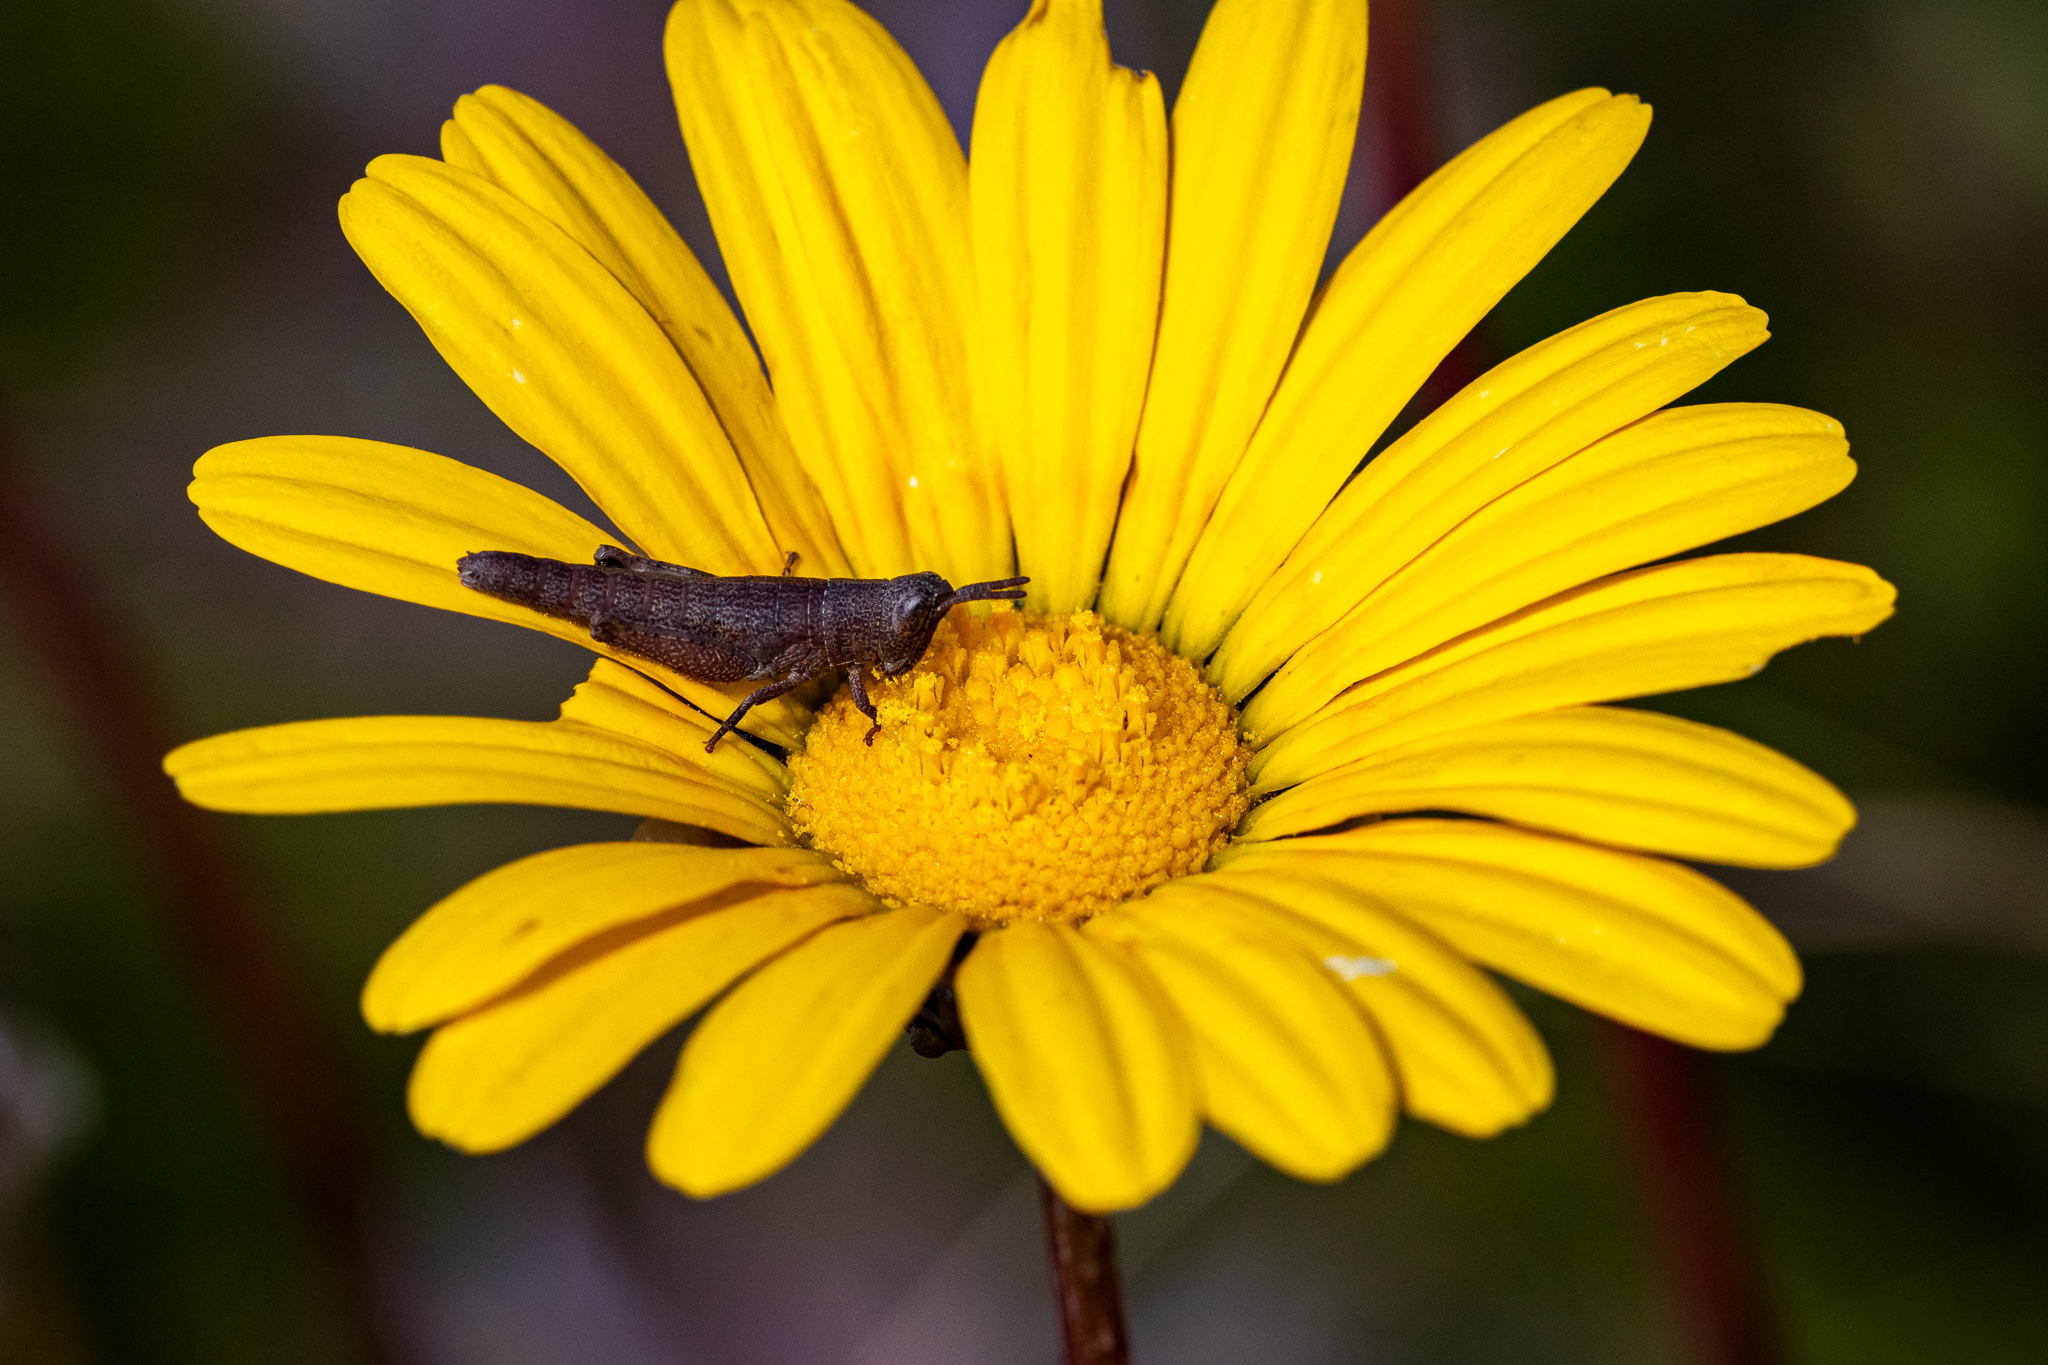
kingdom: Plantae
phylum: Tracheophyta
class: Magnoliopsida
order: Asterales
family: Asteraceae
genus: Ursinia
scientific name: Ursinia paleacea
